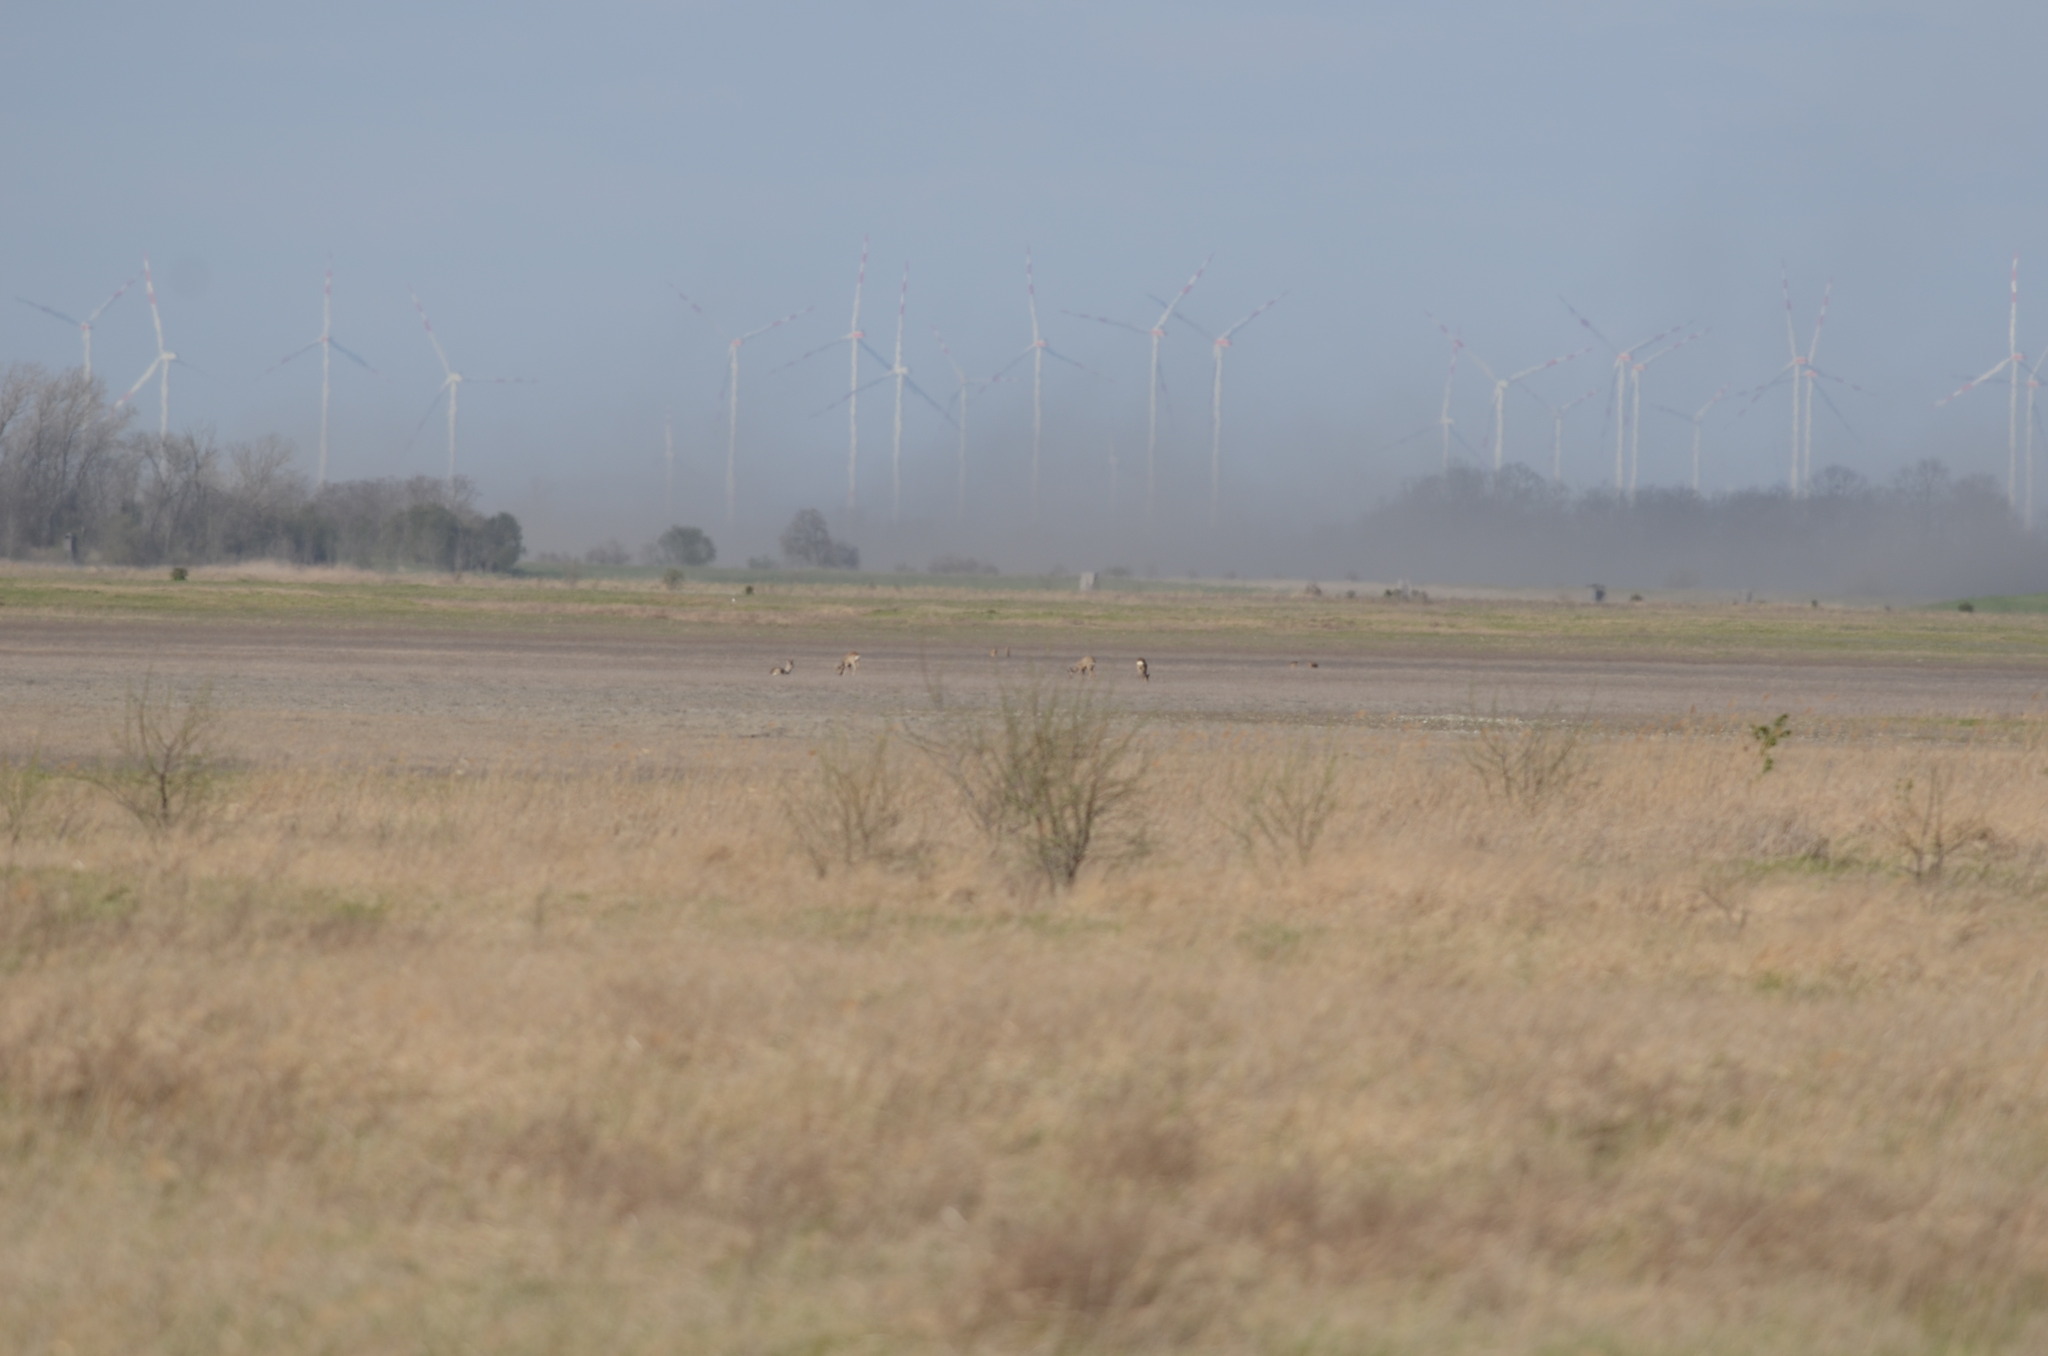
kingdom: Animalia
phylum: Chordata
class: Mammalia
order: Artiodactyla
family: Cervidae
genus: Capreolus
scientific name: Capreolus capreolus
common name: Western roe deer
